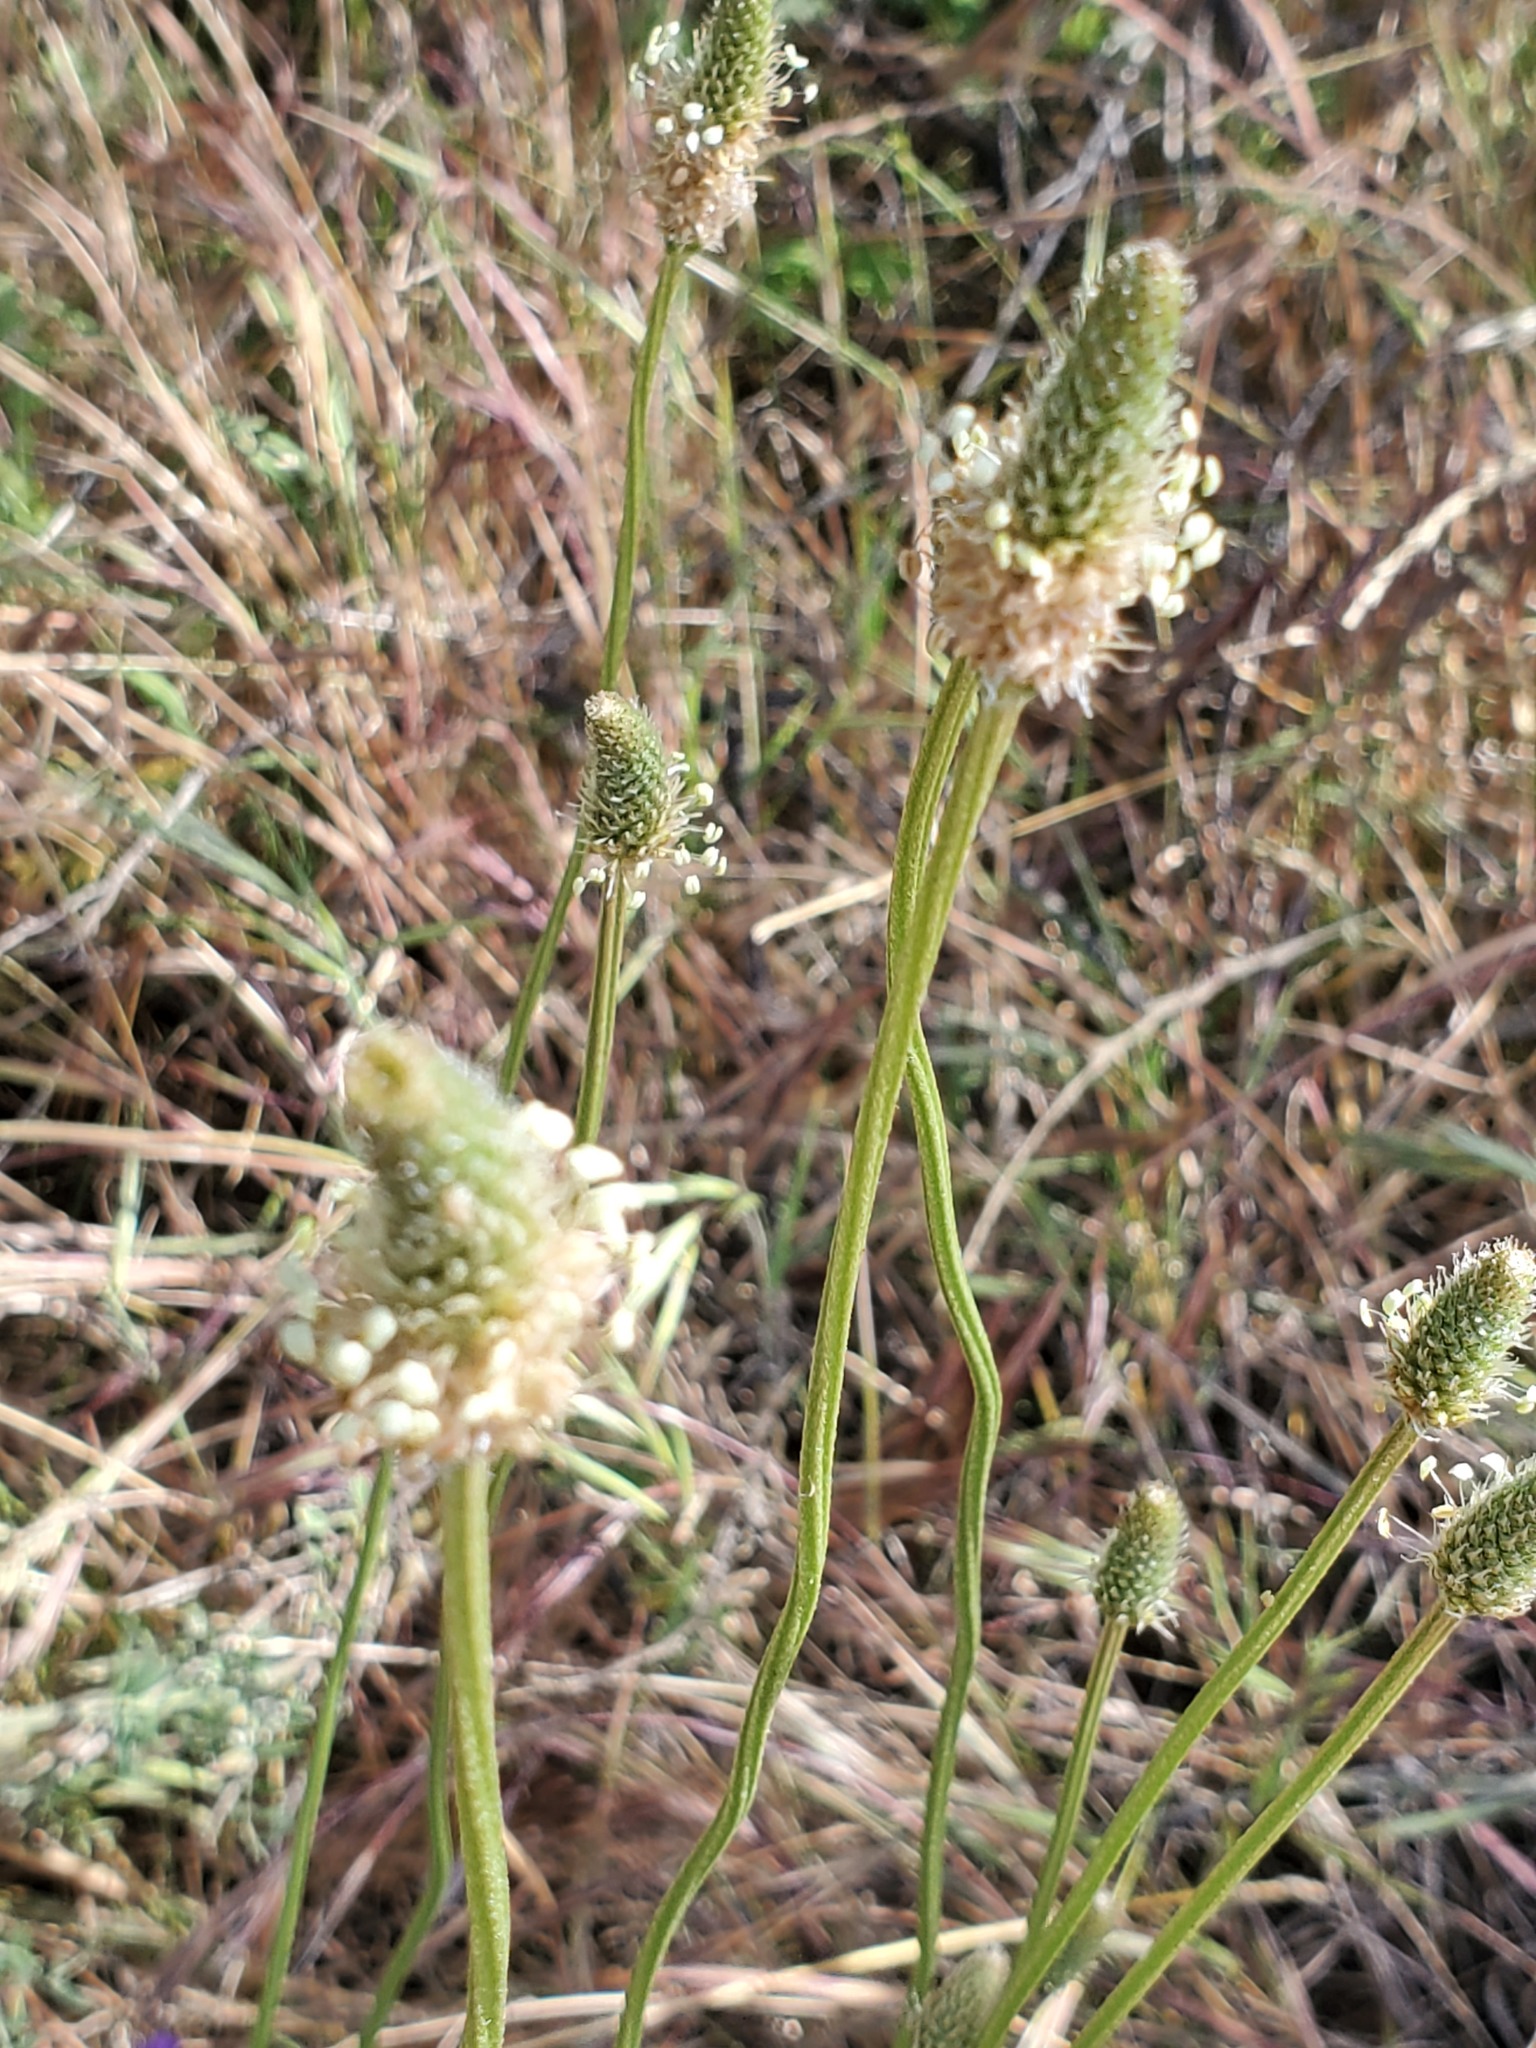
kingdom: Plantae
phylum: Tracheophyta
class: Magnoliopsida
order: Lamiales
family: Plantaginaceae
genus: Plantago
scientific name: Plantago lanceolata
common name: Ribwort plantain
